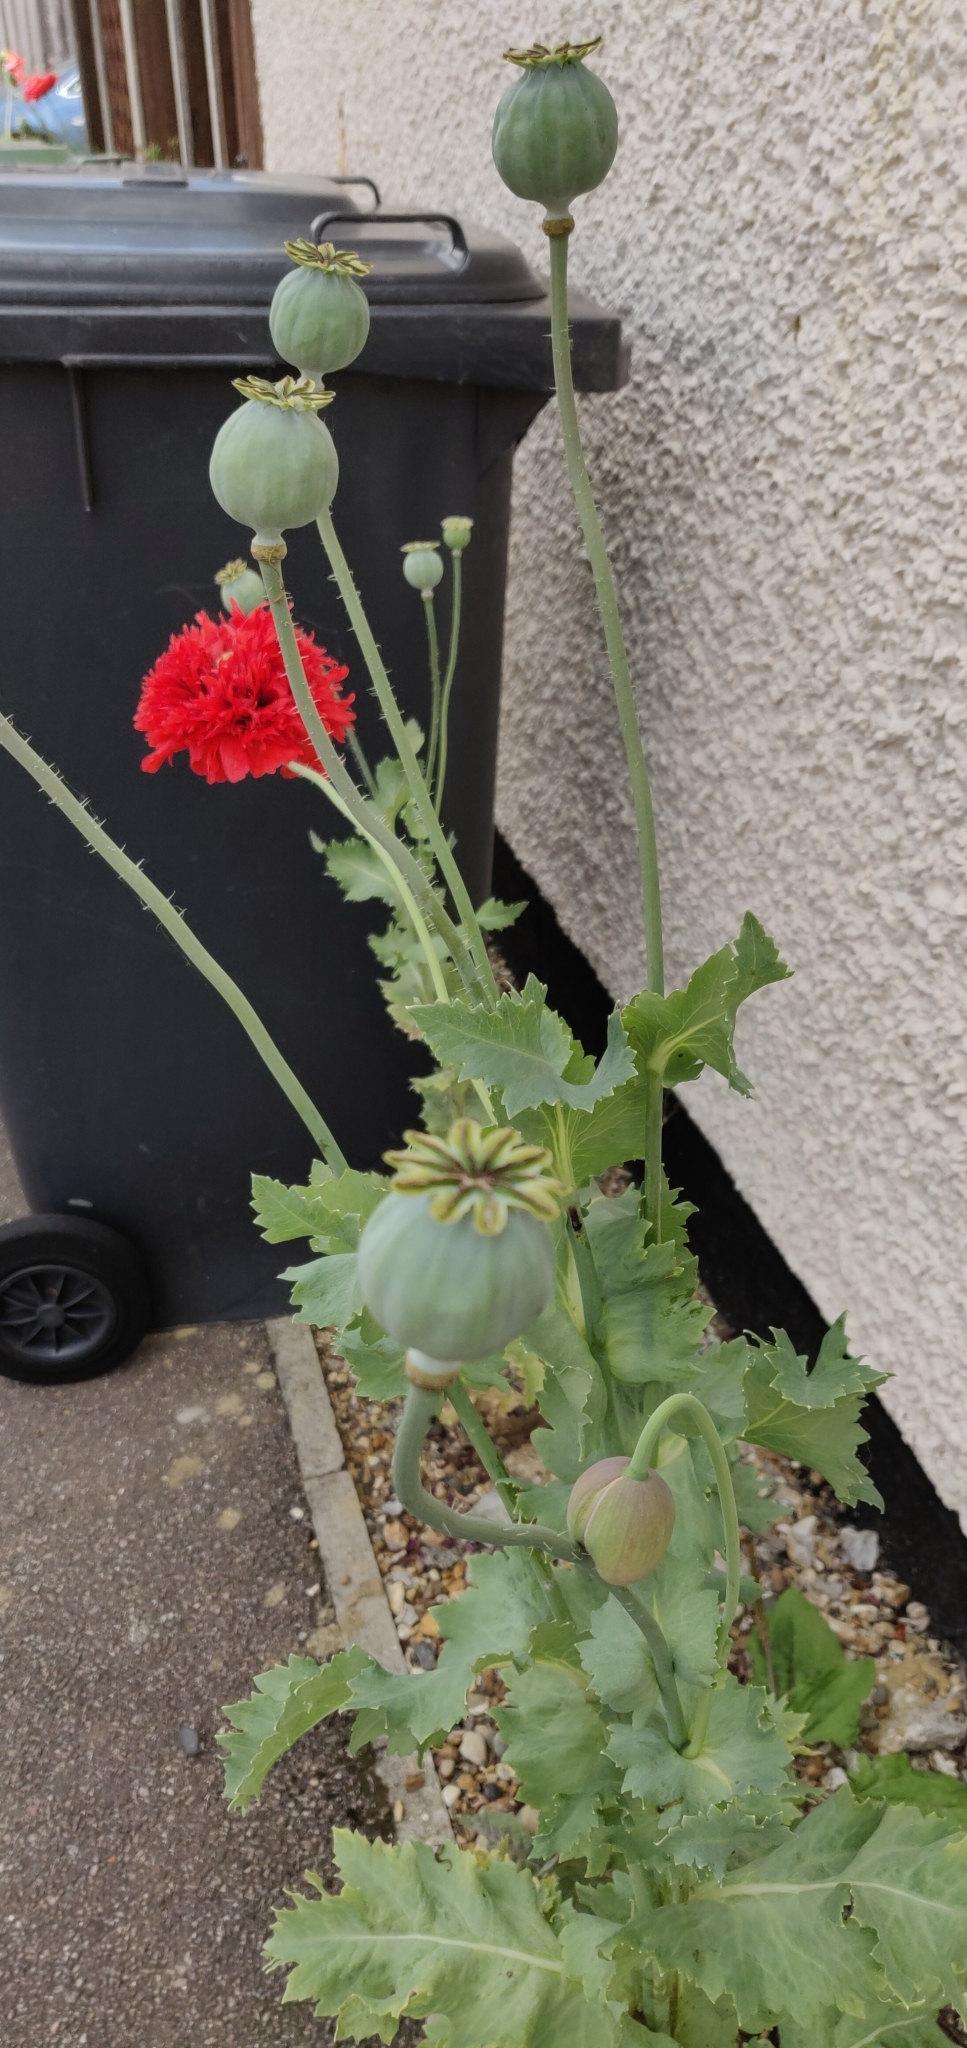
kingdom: Plantae
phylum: Tracheophyta
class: Magnoliopsida
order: Ranunculales
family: Papaveraceae
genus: Papaver
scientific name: Papaver somniferum
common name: Opium poppy
